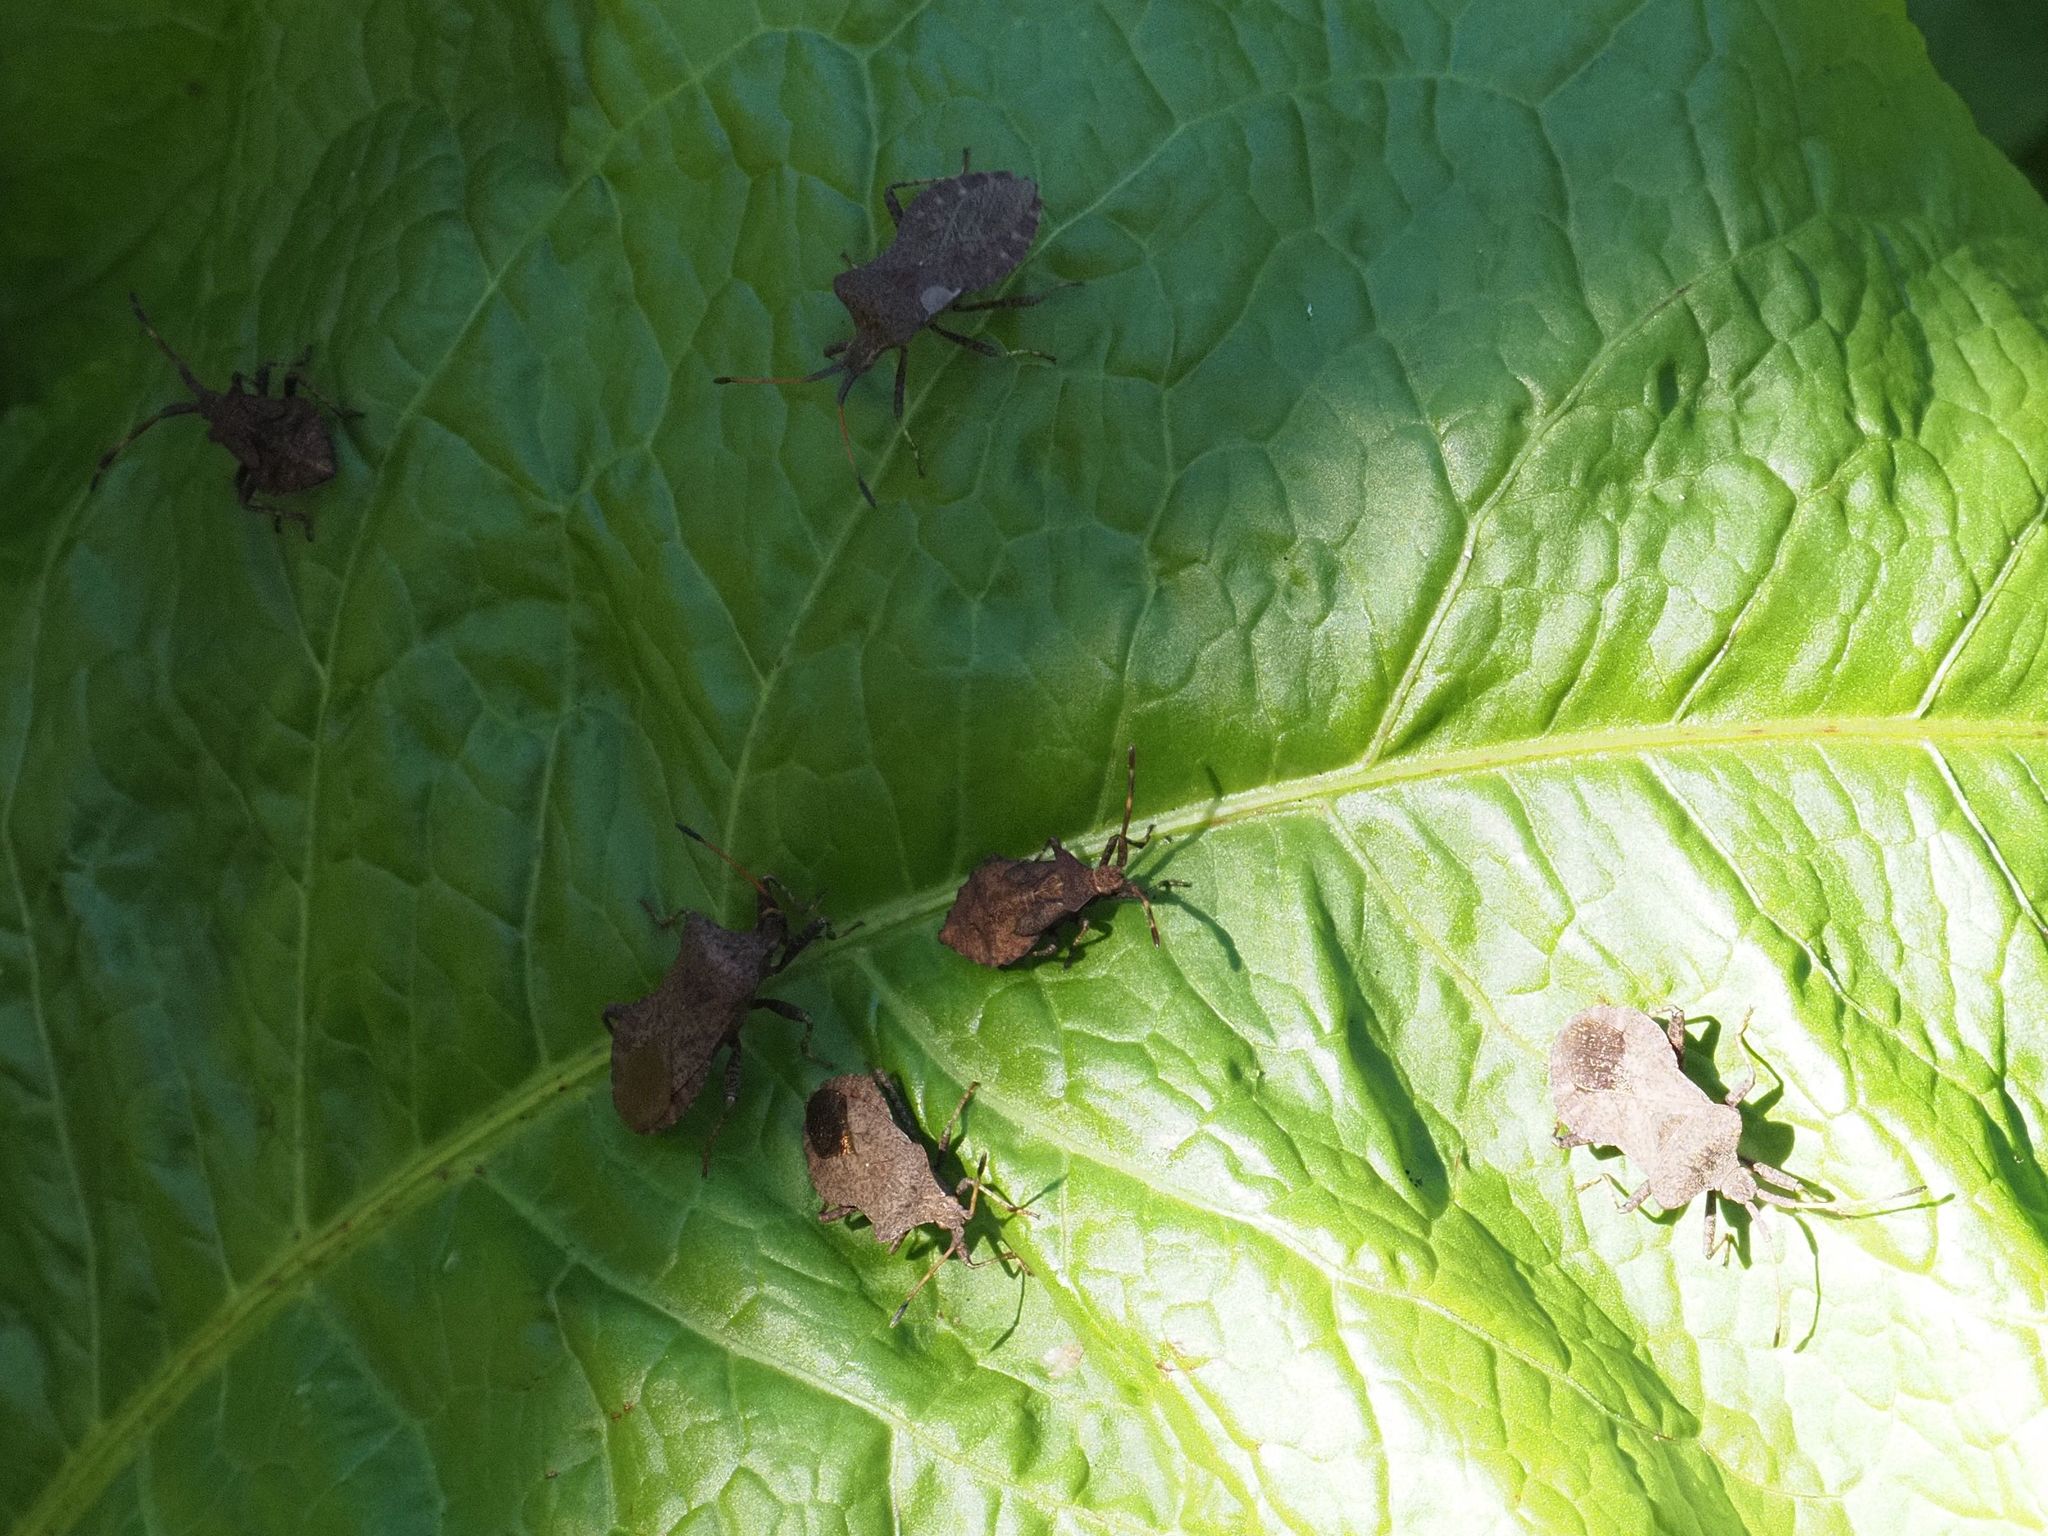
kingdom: Animalia
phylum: Arthropoda
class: Insecta
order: Hemiptera
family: Coreidae
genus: Coreus
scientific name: Coreus marginatus
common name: Dock bug
